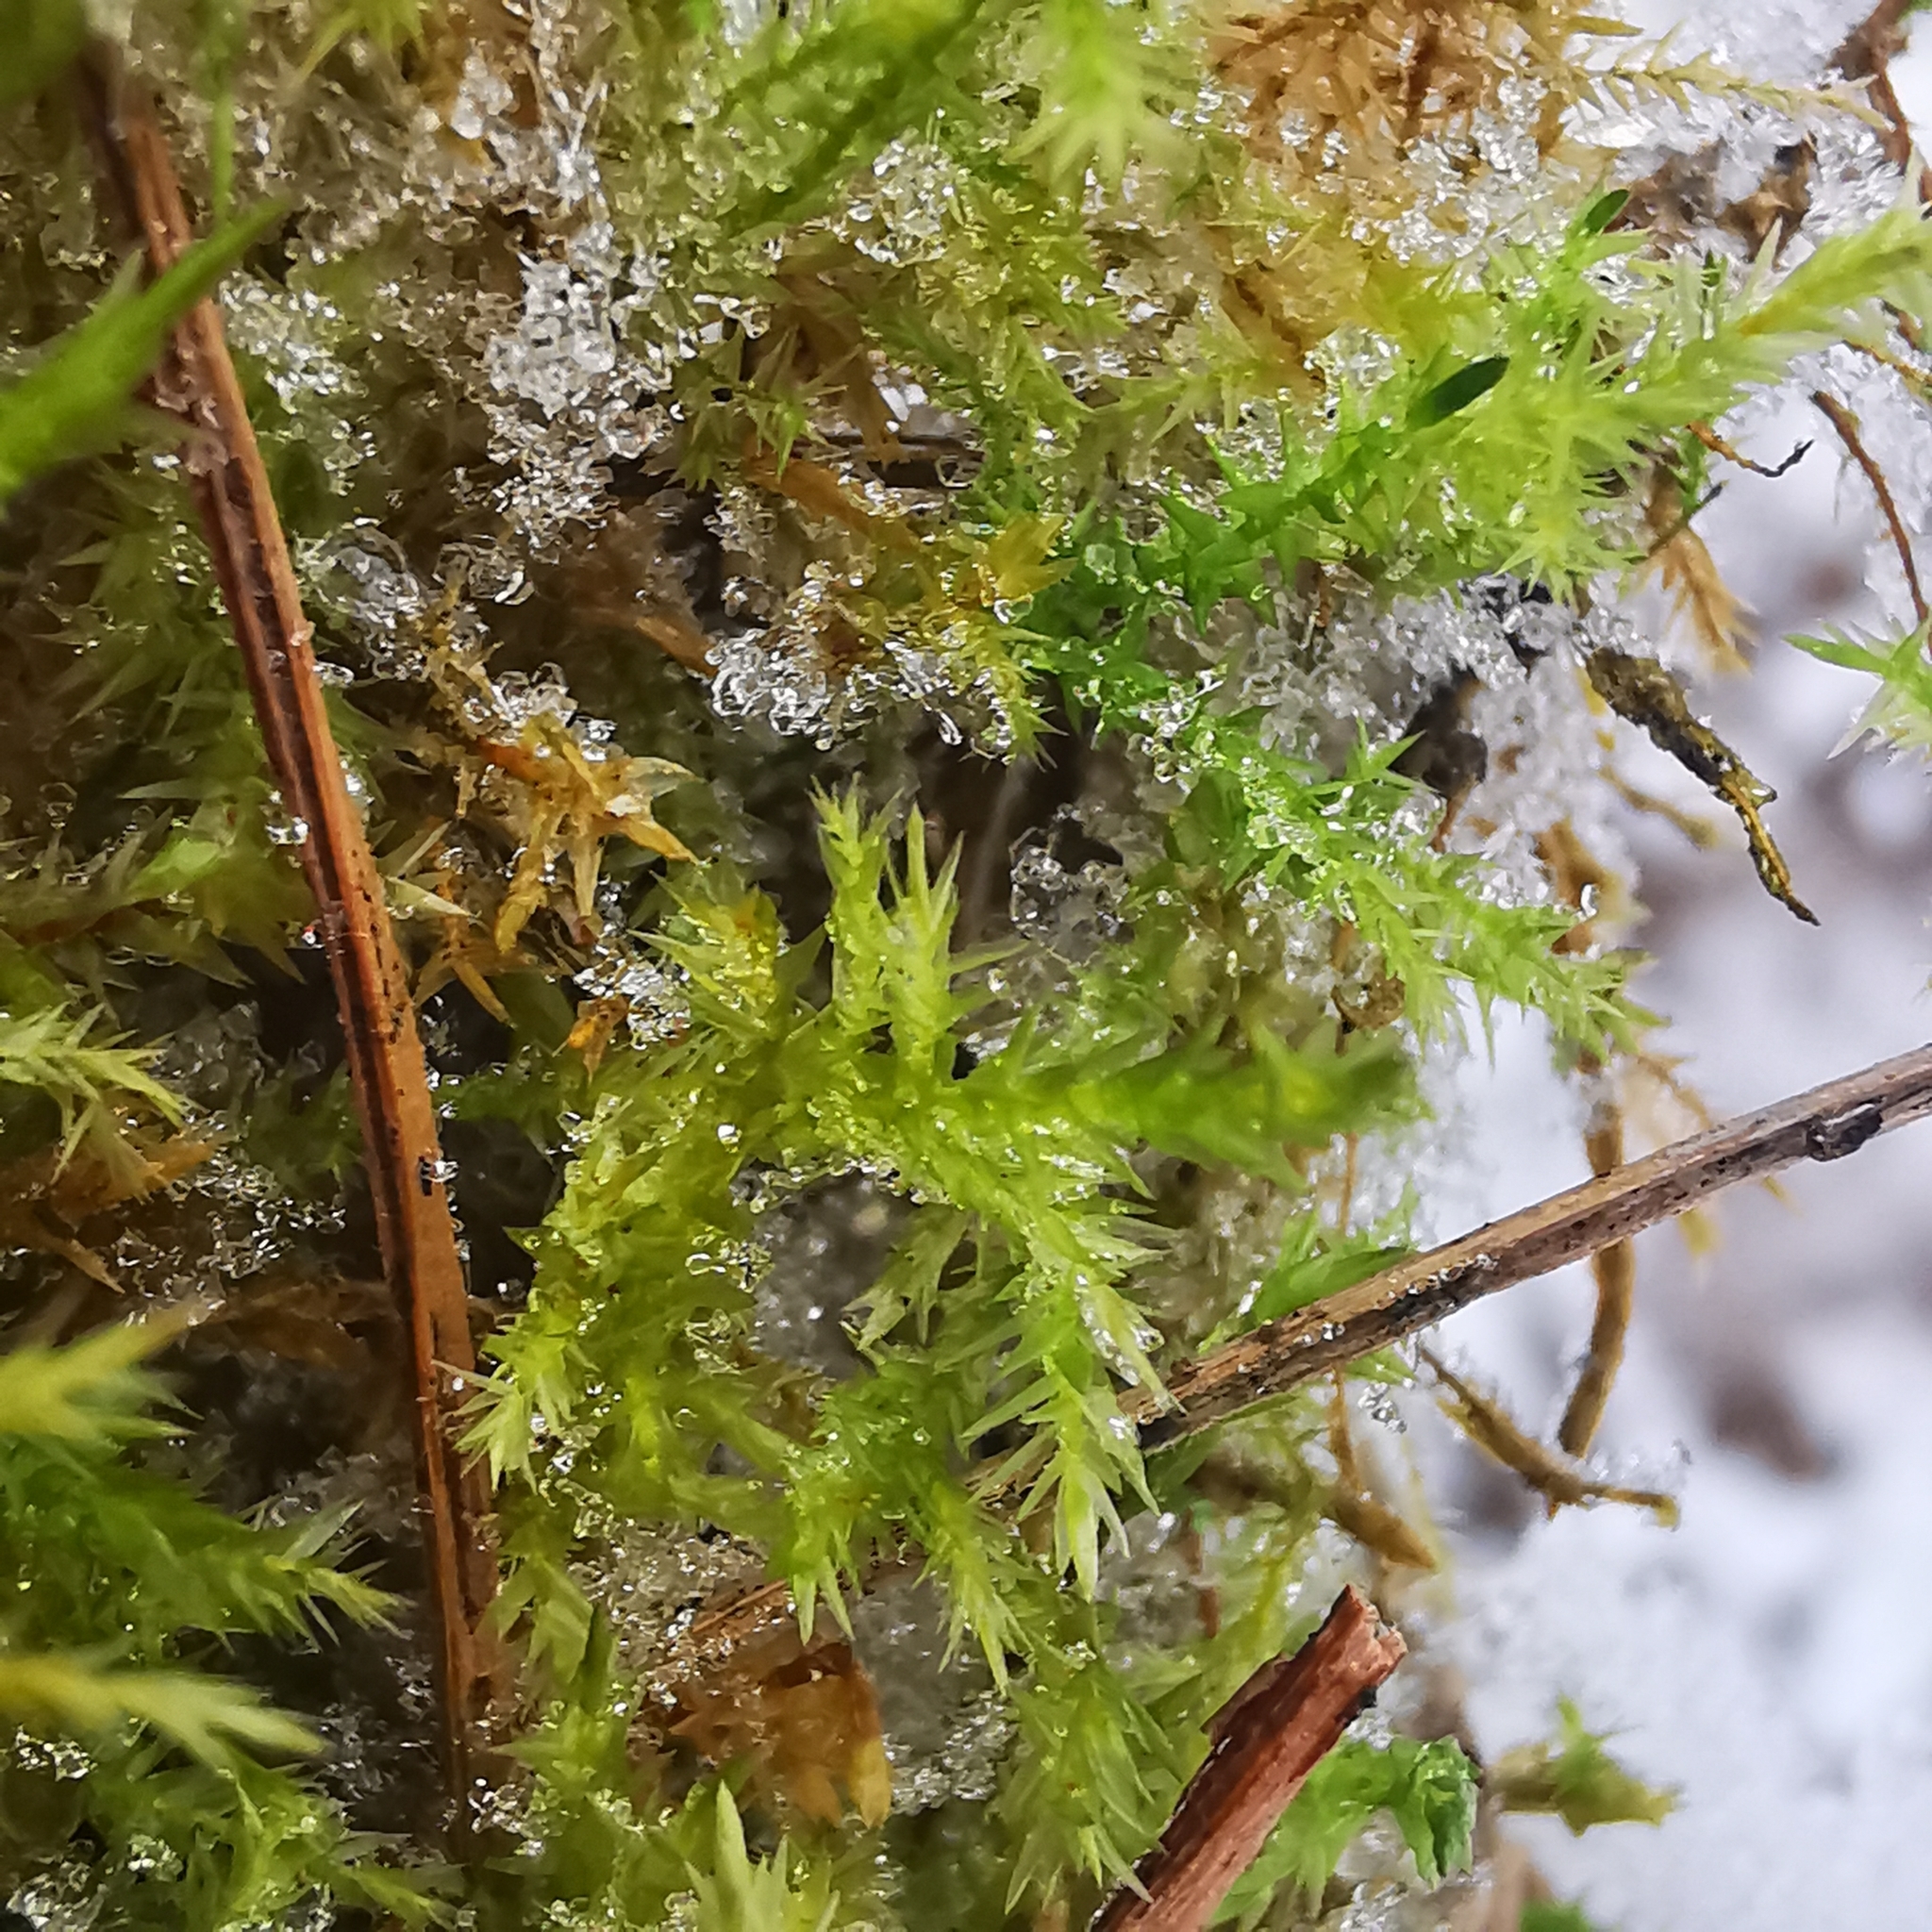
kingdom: Plantae
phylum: Bryophyta
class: Bryopsida
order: Hypnales
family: Pylaisiaceae
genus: Calliergonella
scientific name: Calliergonella cuspidata
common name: Common large wetland moss
